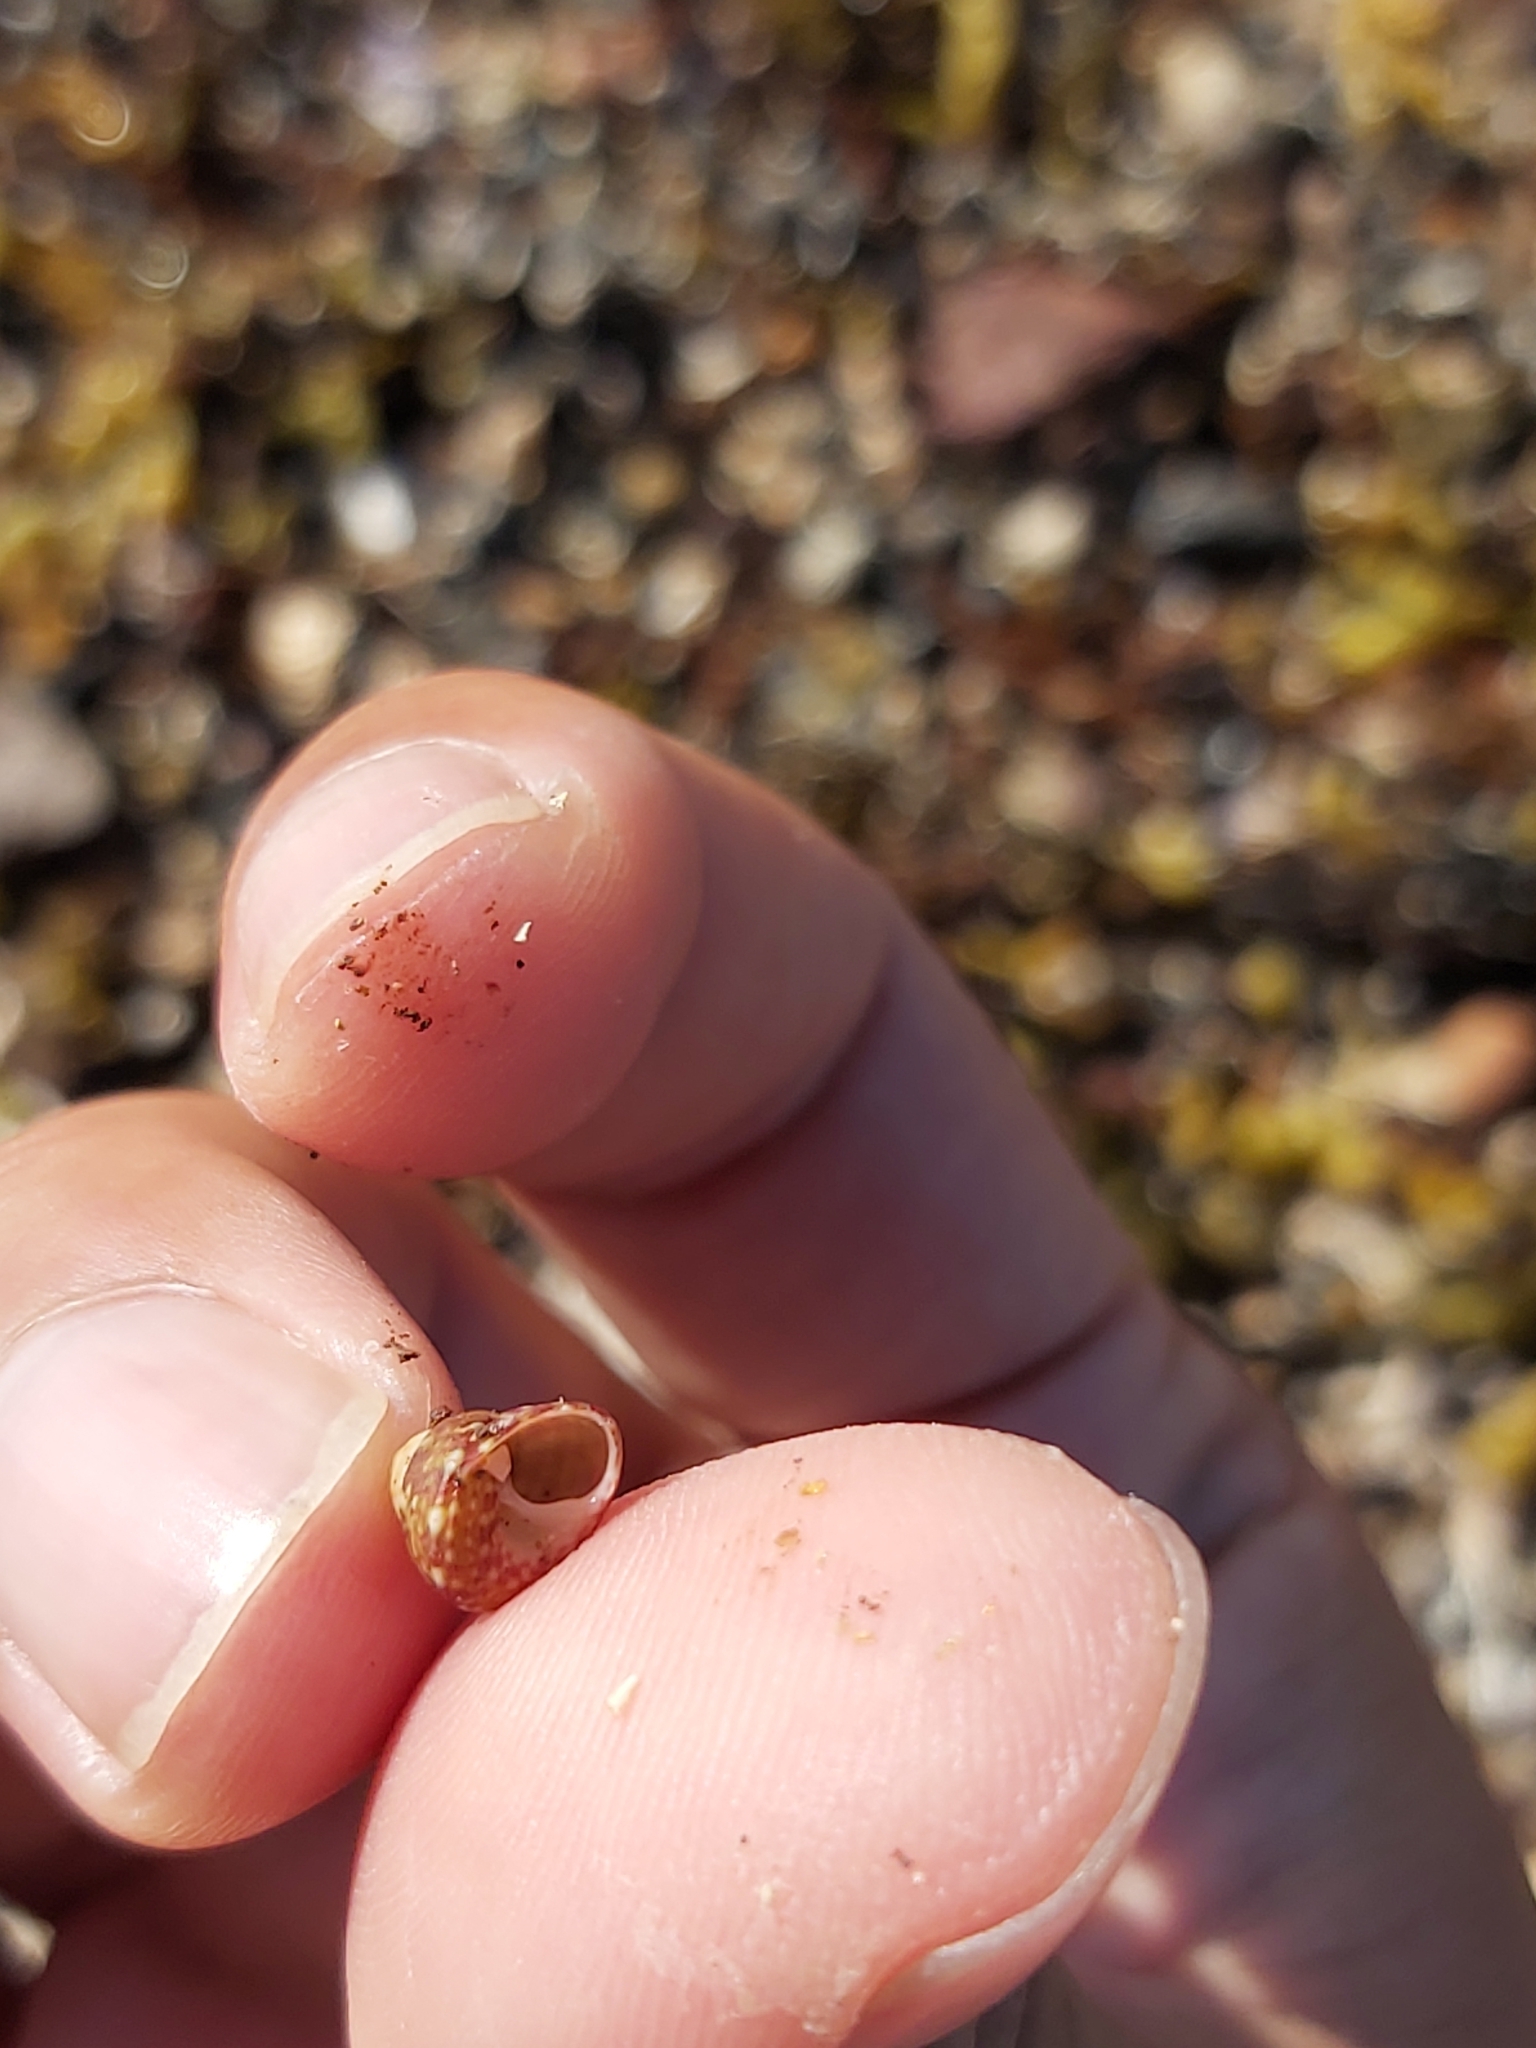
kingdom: Animalia
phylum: Mollusca
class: Gastropoda
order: Trochida
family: Trochidae
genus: Cantharidella
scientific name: Cantharidella picturata
